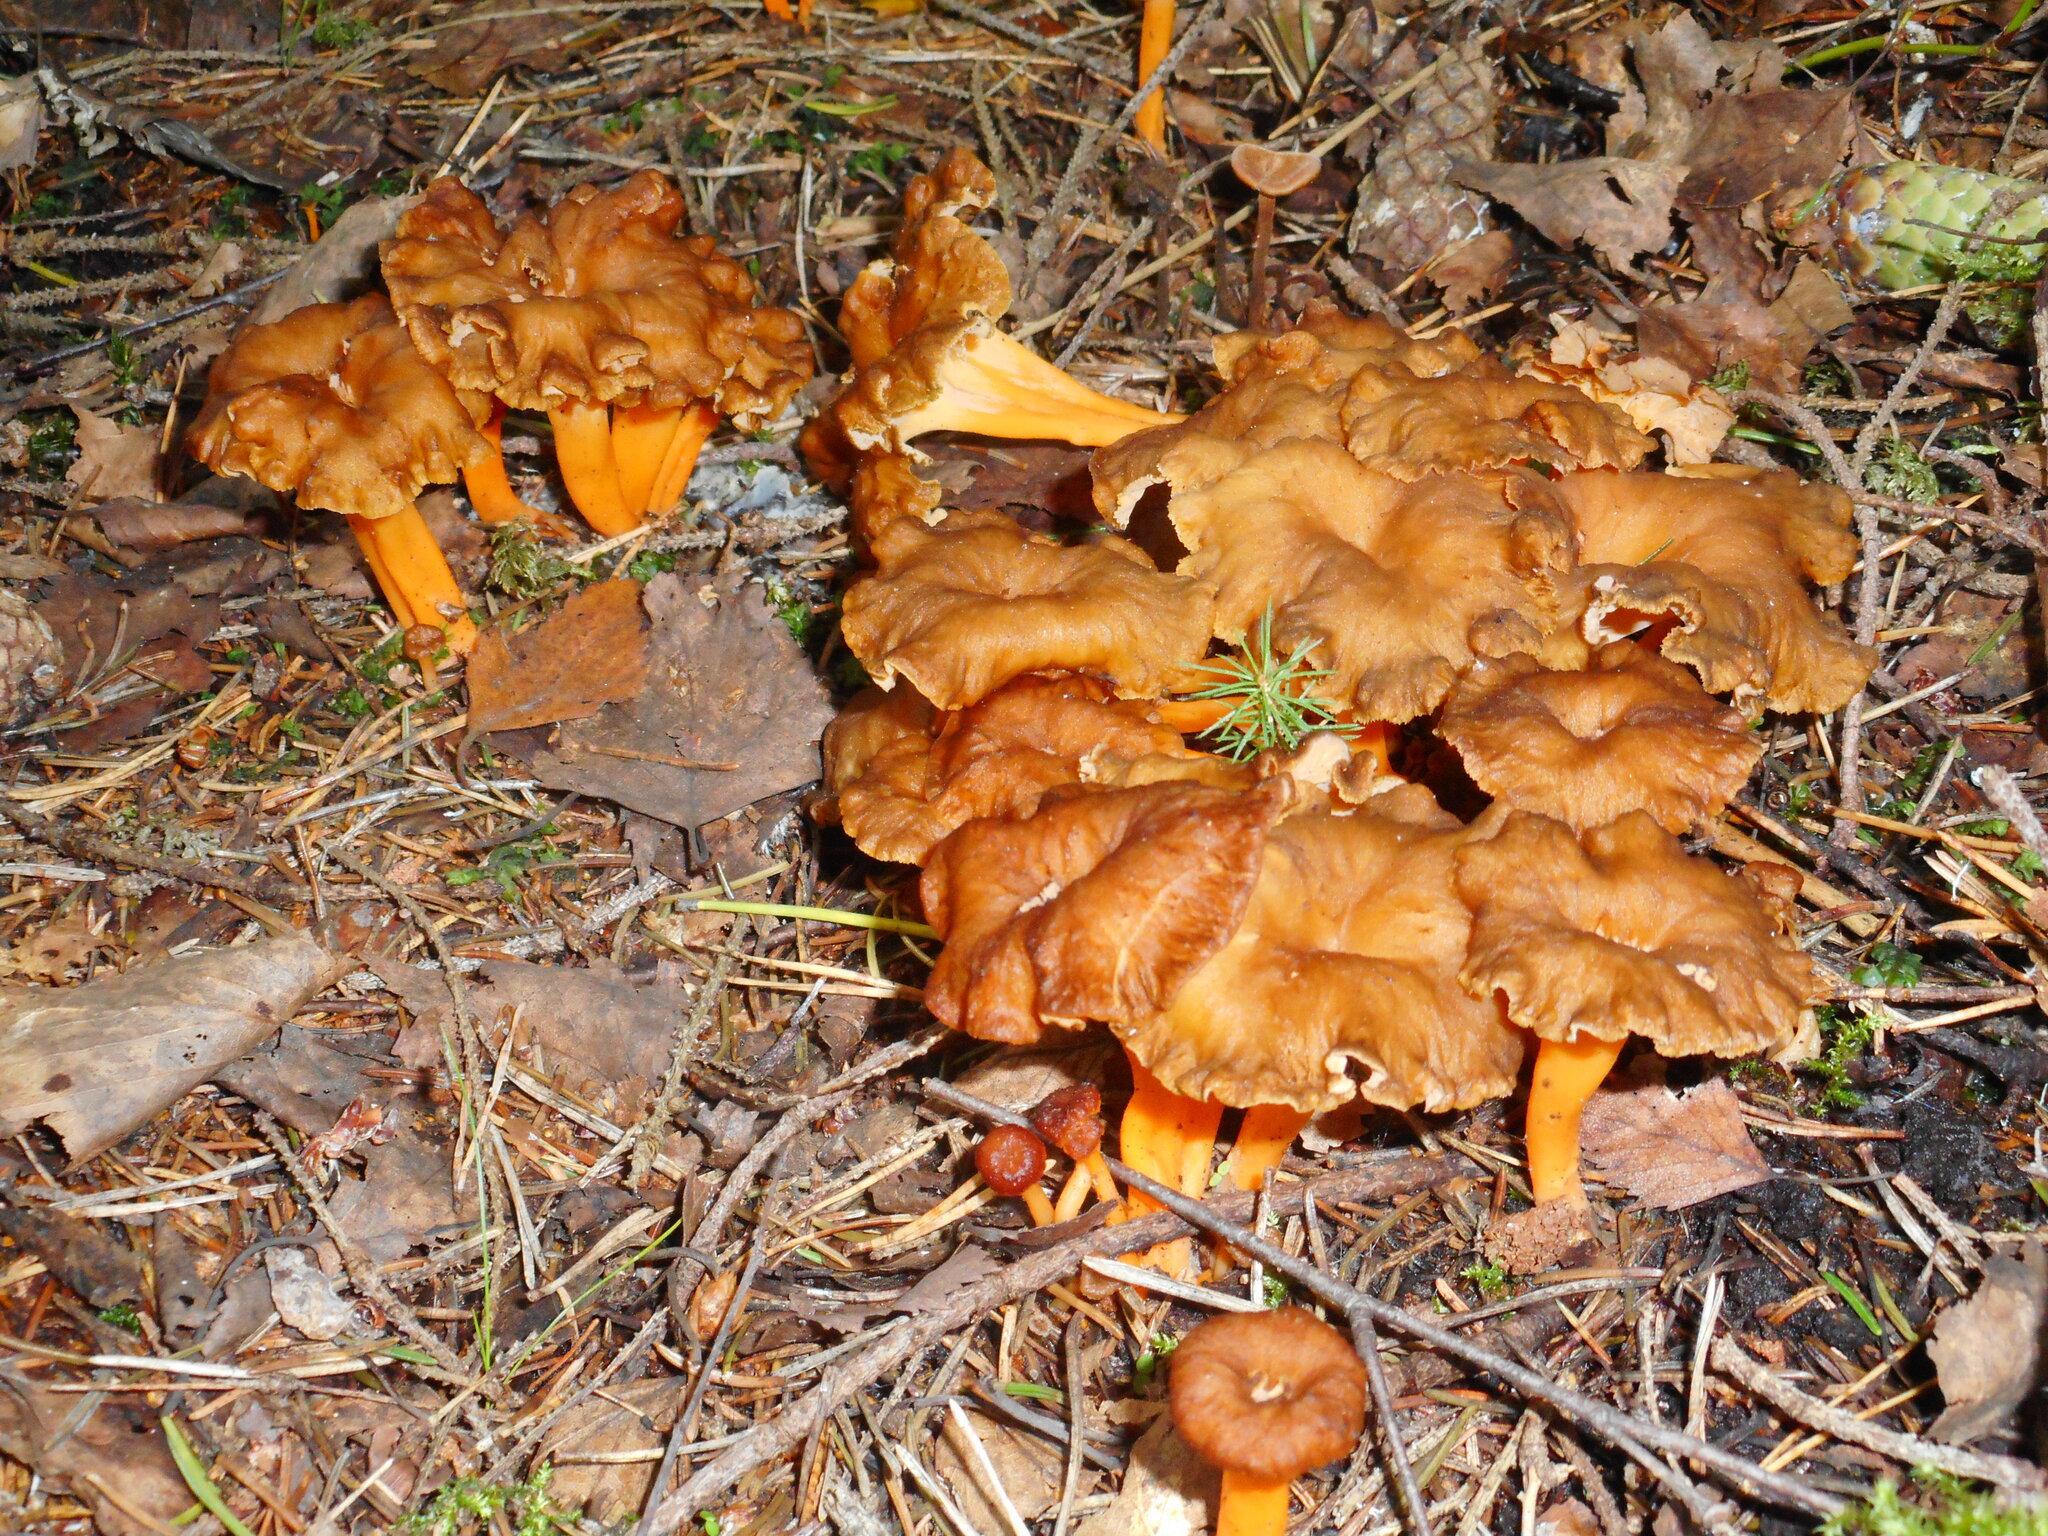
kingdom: Fungi
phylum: Basidiomycota
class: Agaricomycetes
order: Cantharellales
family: Hydnaceae
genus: Craterellus
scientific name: Craterellus lutescens
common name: Golden chanterelle
